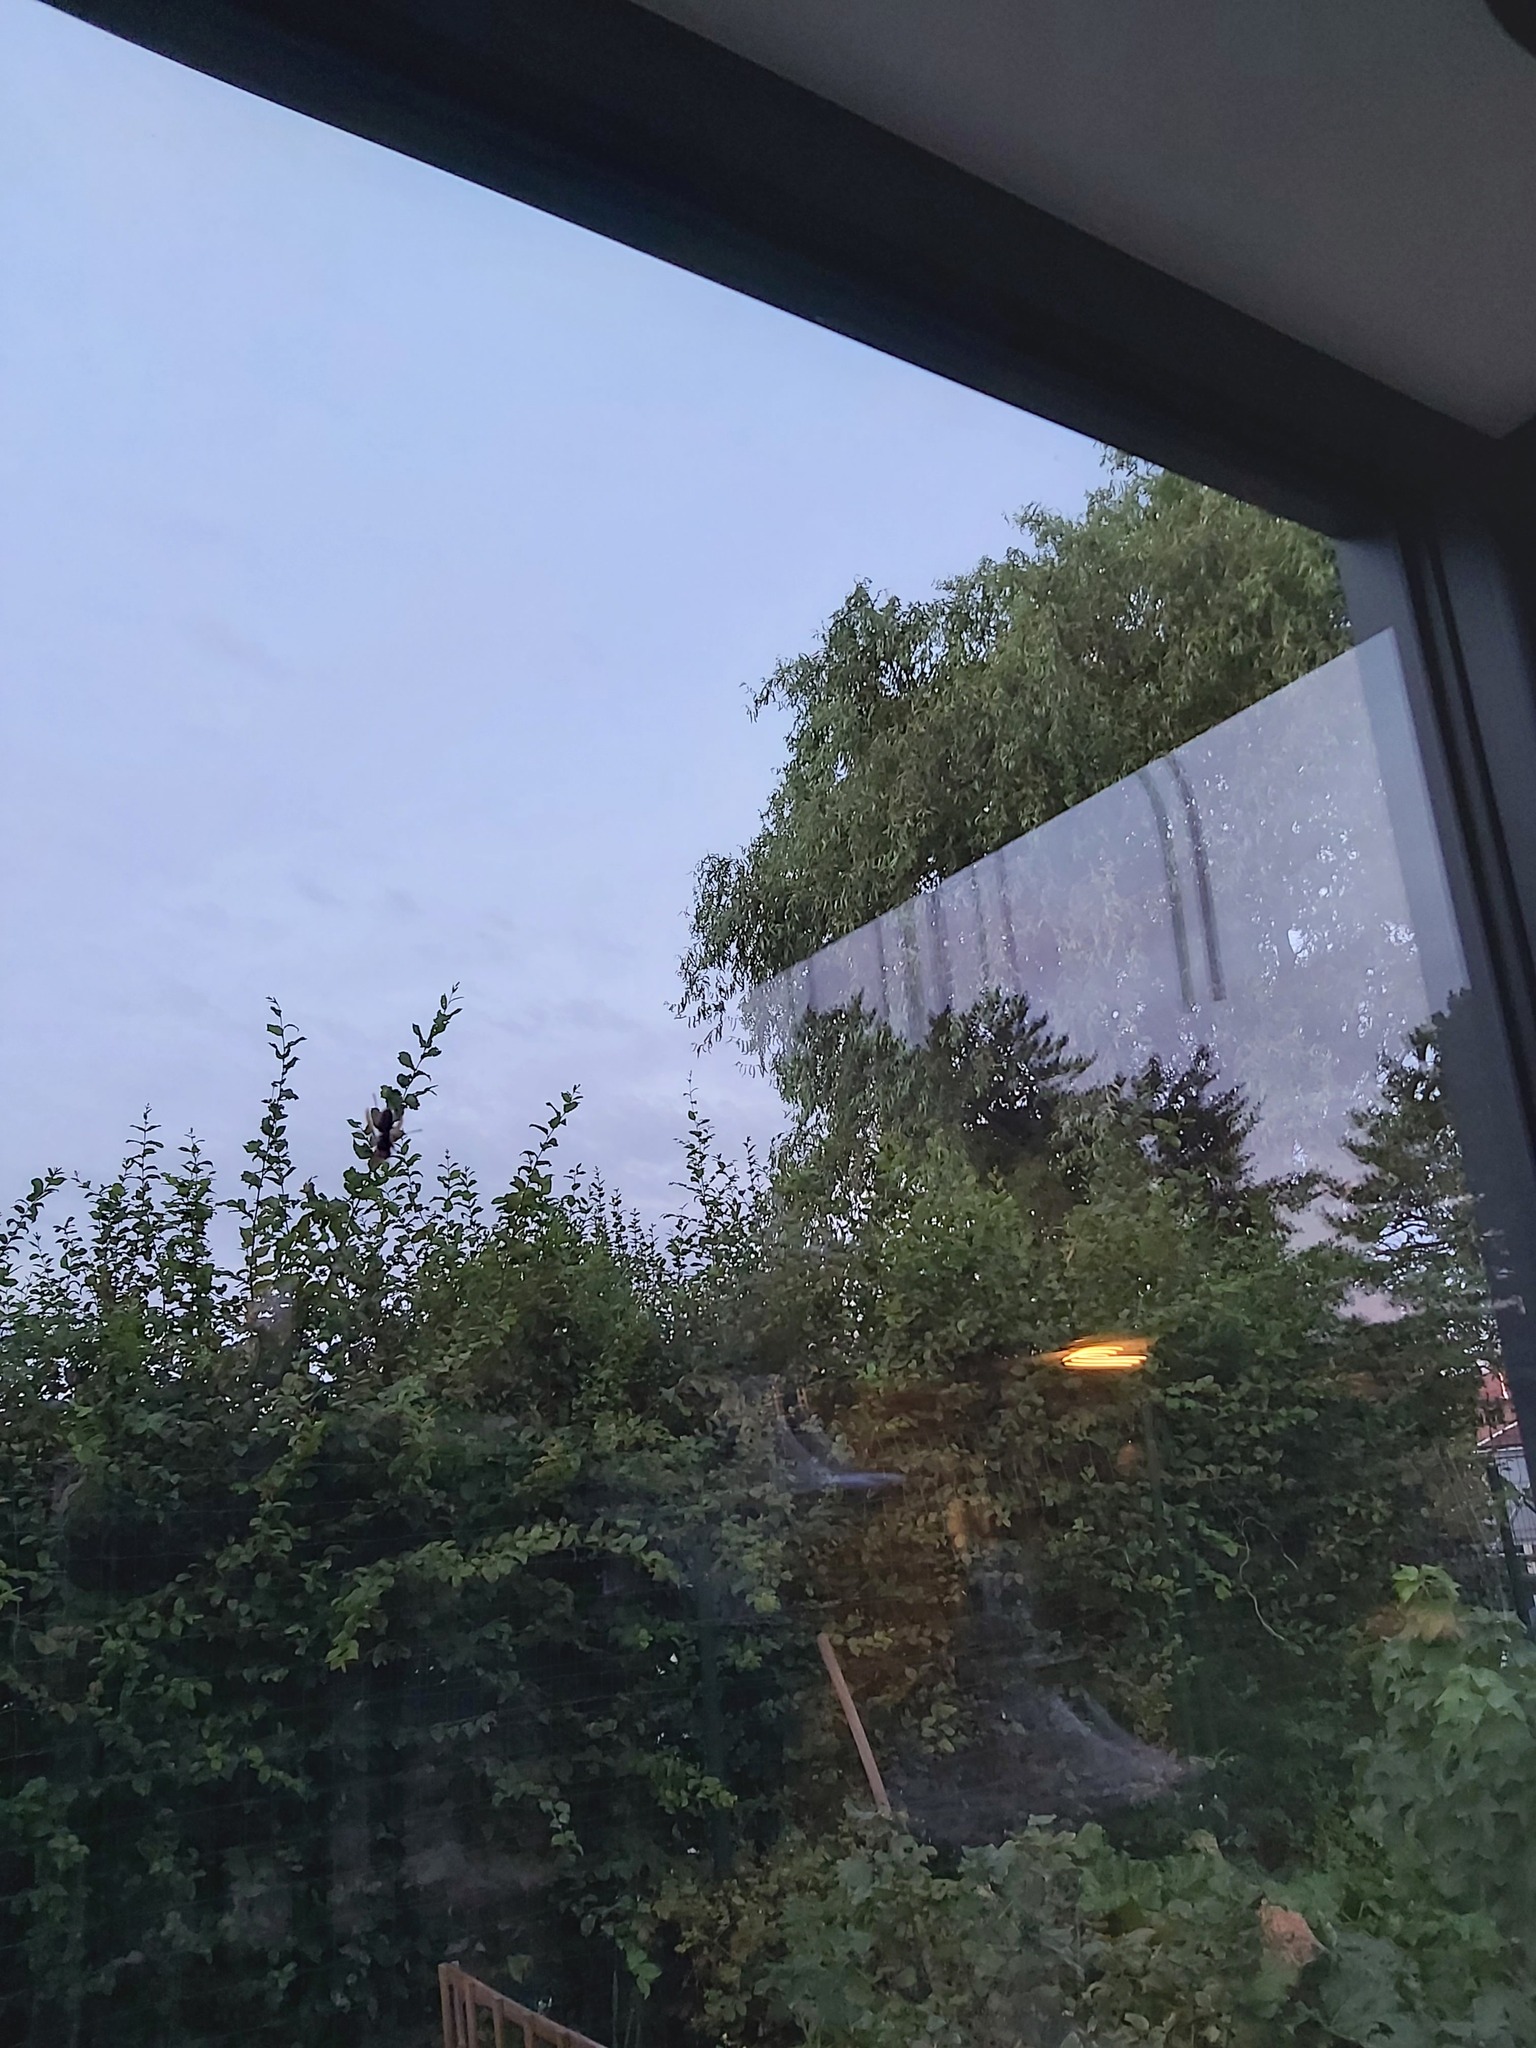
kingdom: Animalia
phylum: Arthropoda
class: Insecta
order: Hymenoptera
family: Vespidae
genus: Vespa
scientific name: Vespa crabro
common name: Hornet
